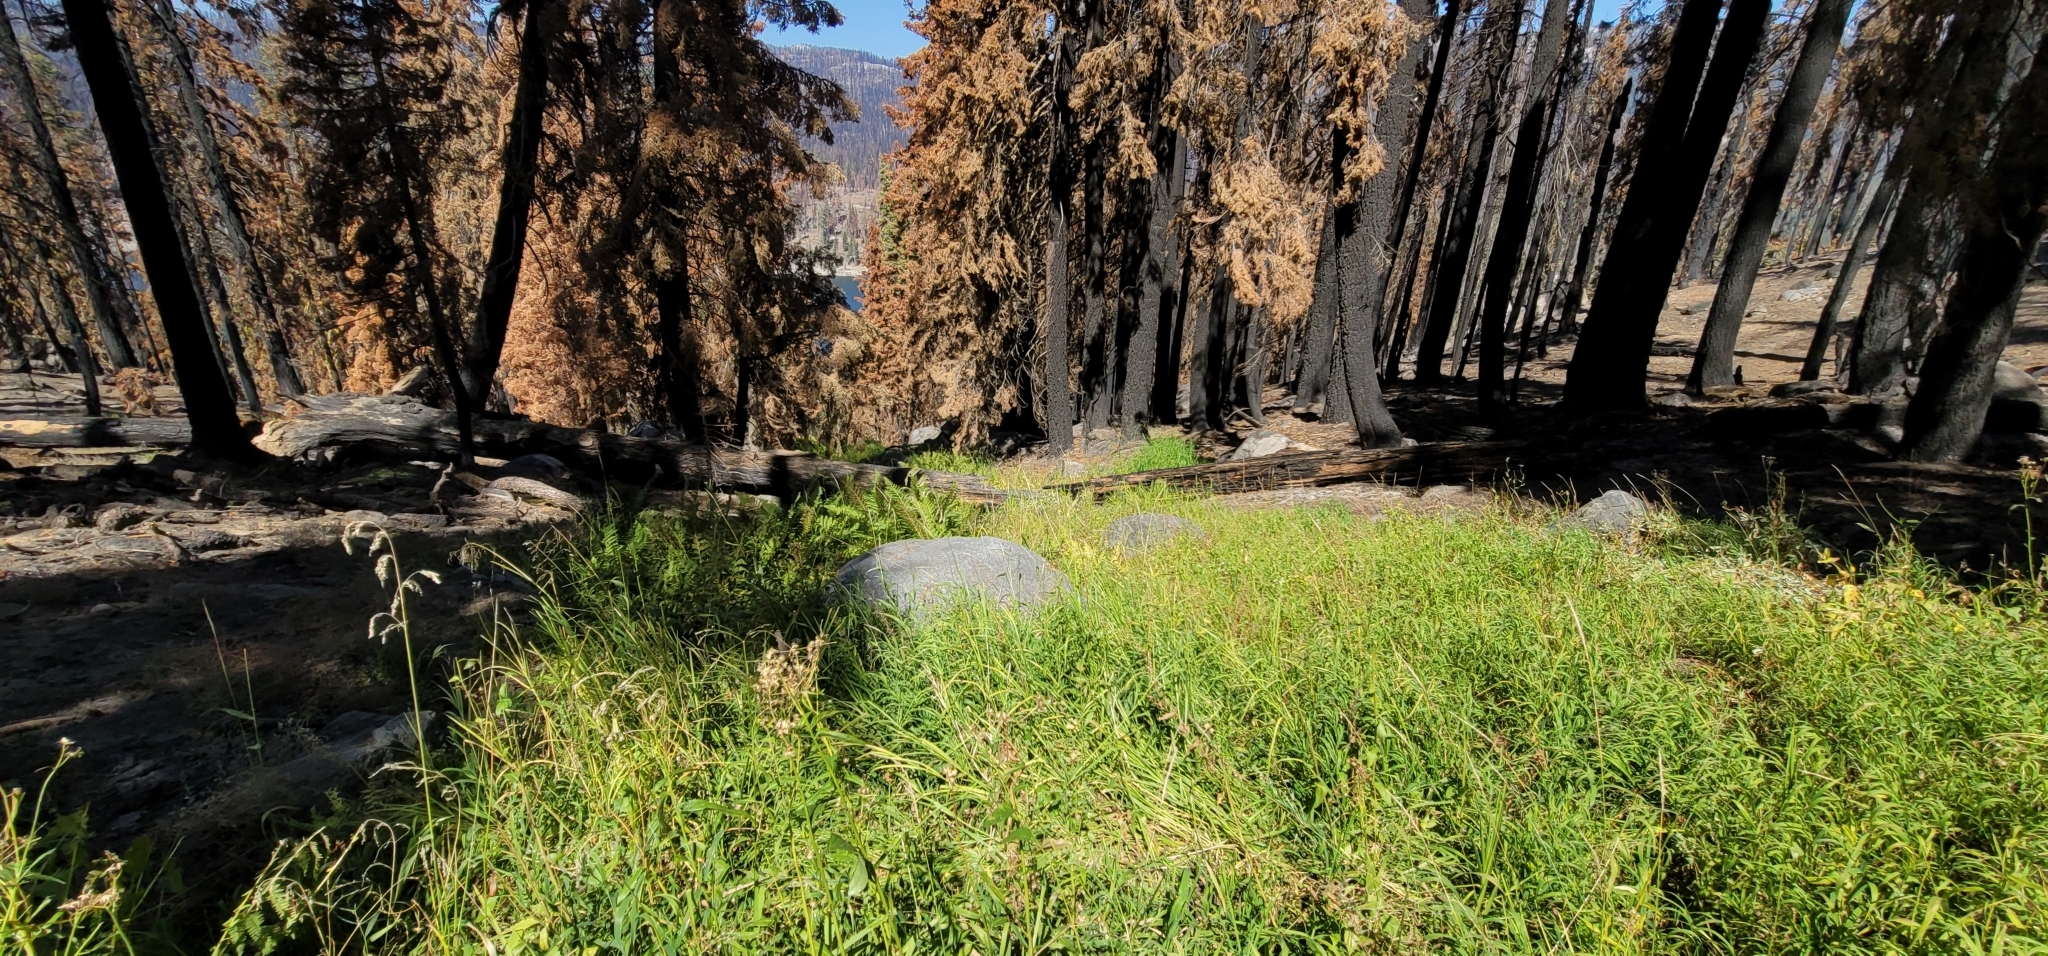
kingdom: Plantae
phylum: Tracheophyta
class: Liliopsida
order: Poales
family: Poaceae
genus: Cinna
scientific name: Cinna bolanderi
